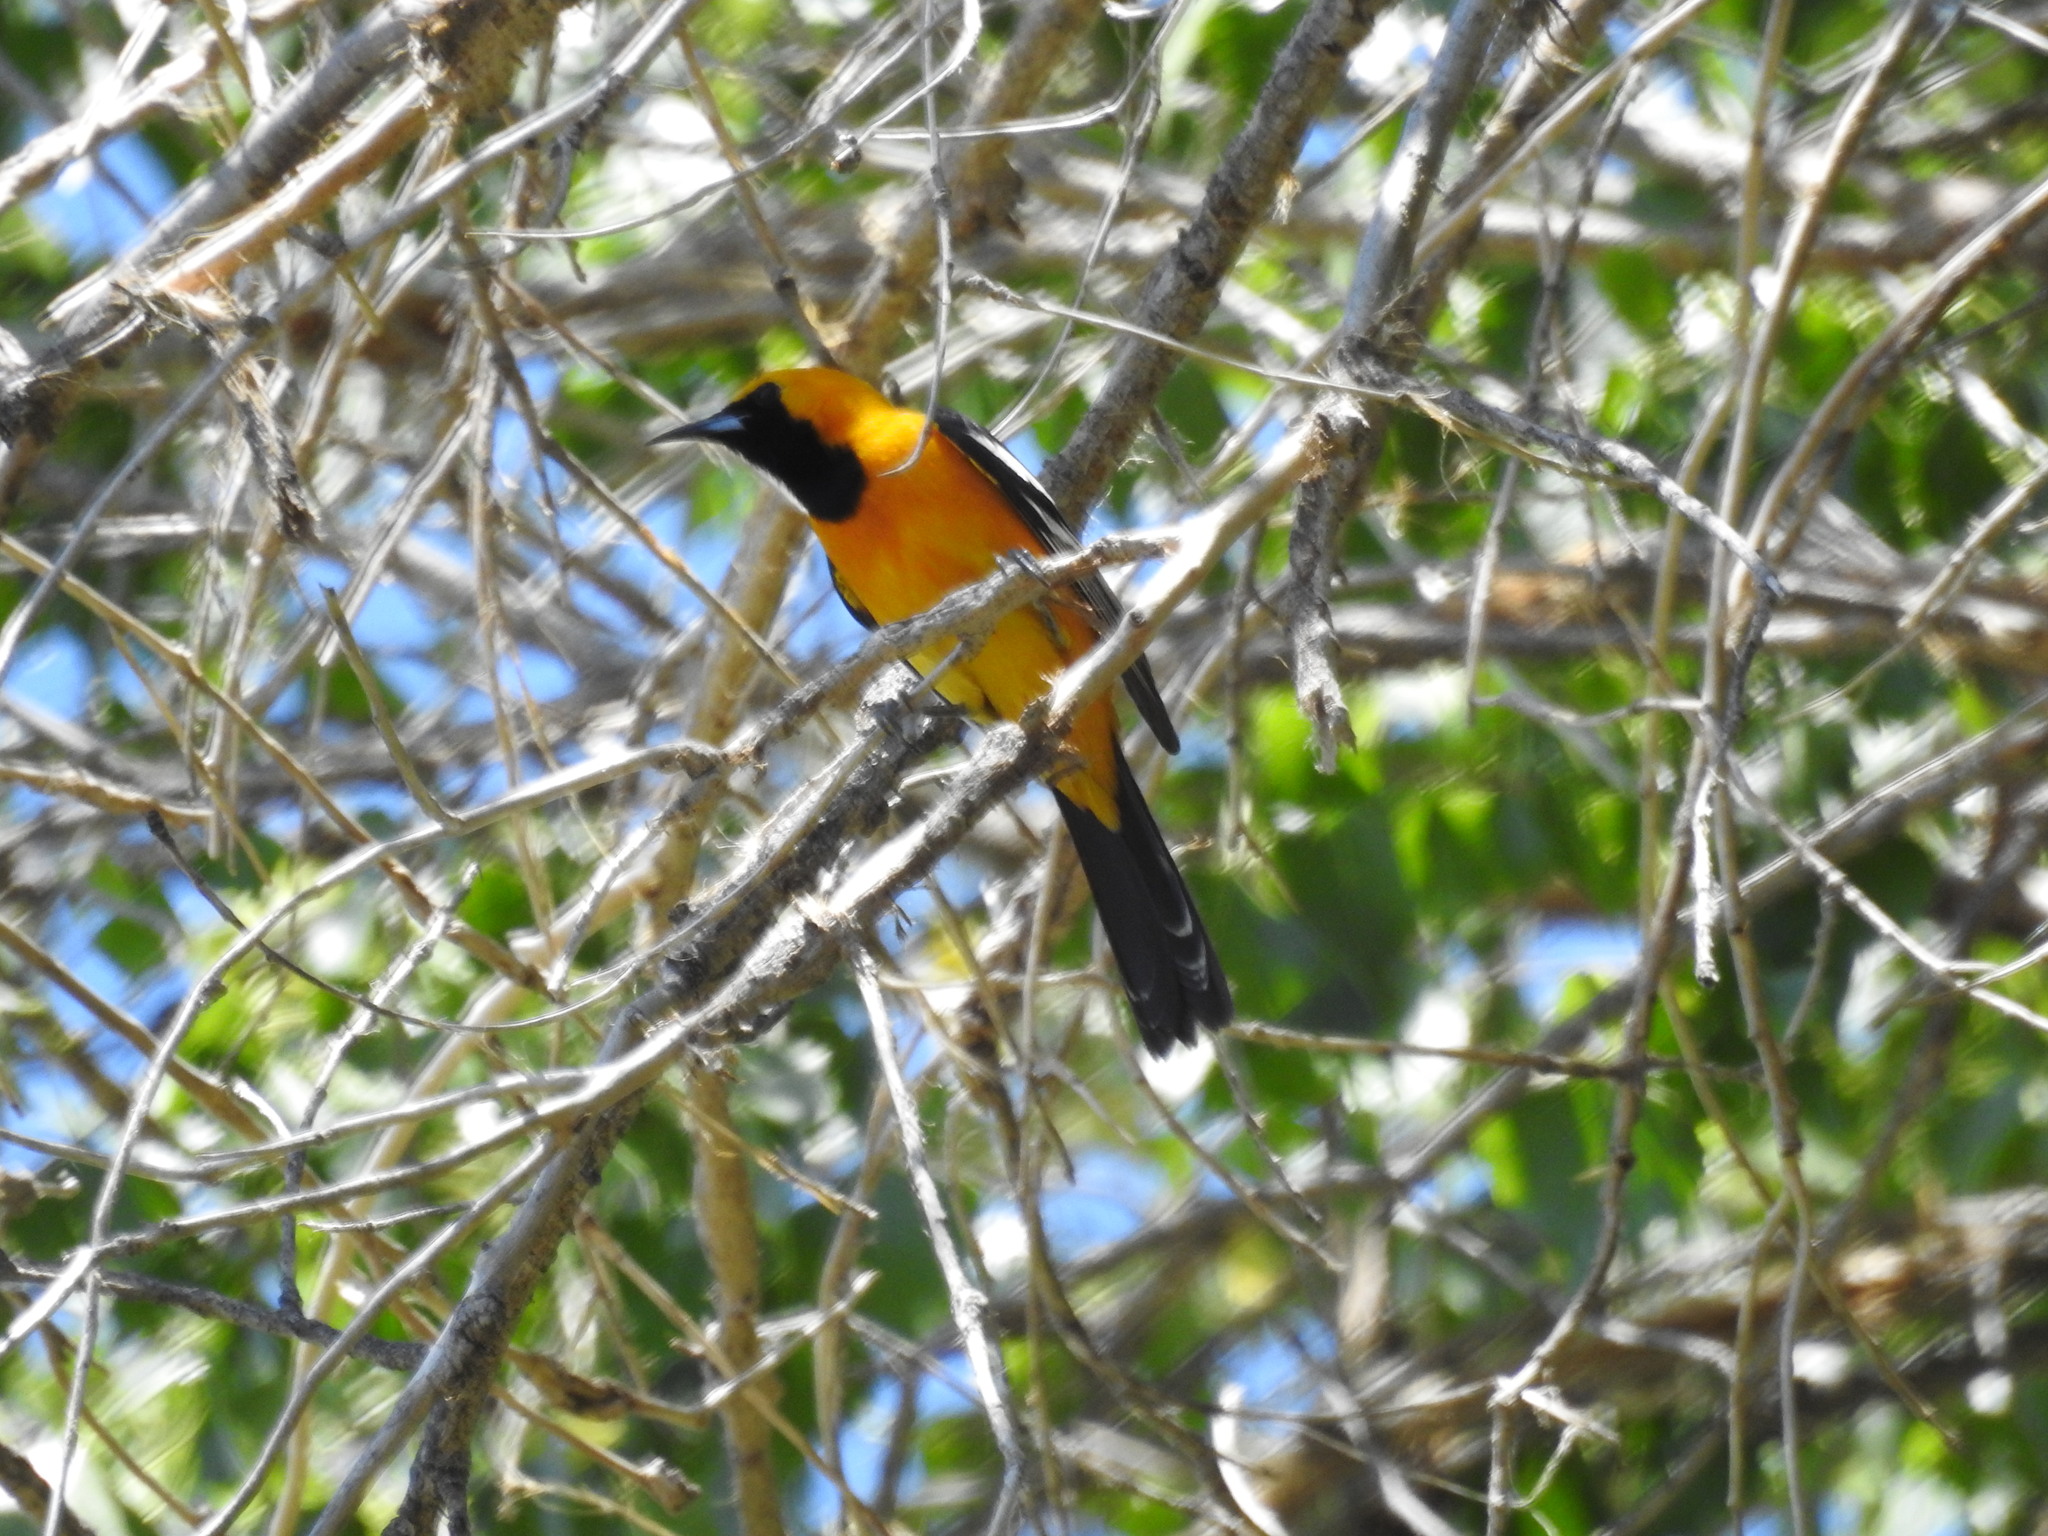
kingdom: Animalia
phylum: Chordata
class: Aves
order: Passeriformes
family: Icteridae
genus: Icterus
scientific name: Icterus cucullatus
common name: Hooded oriole
